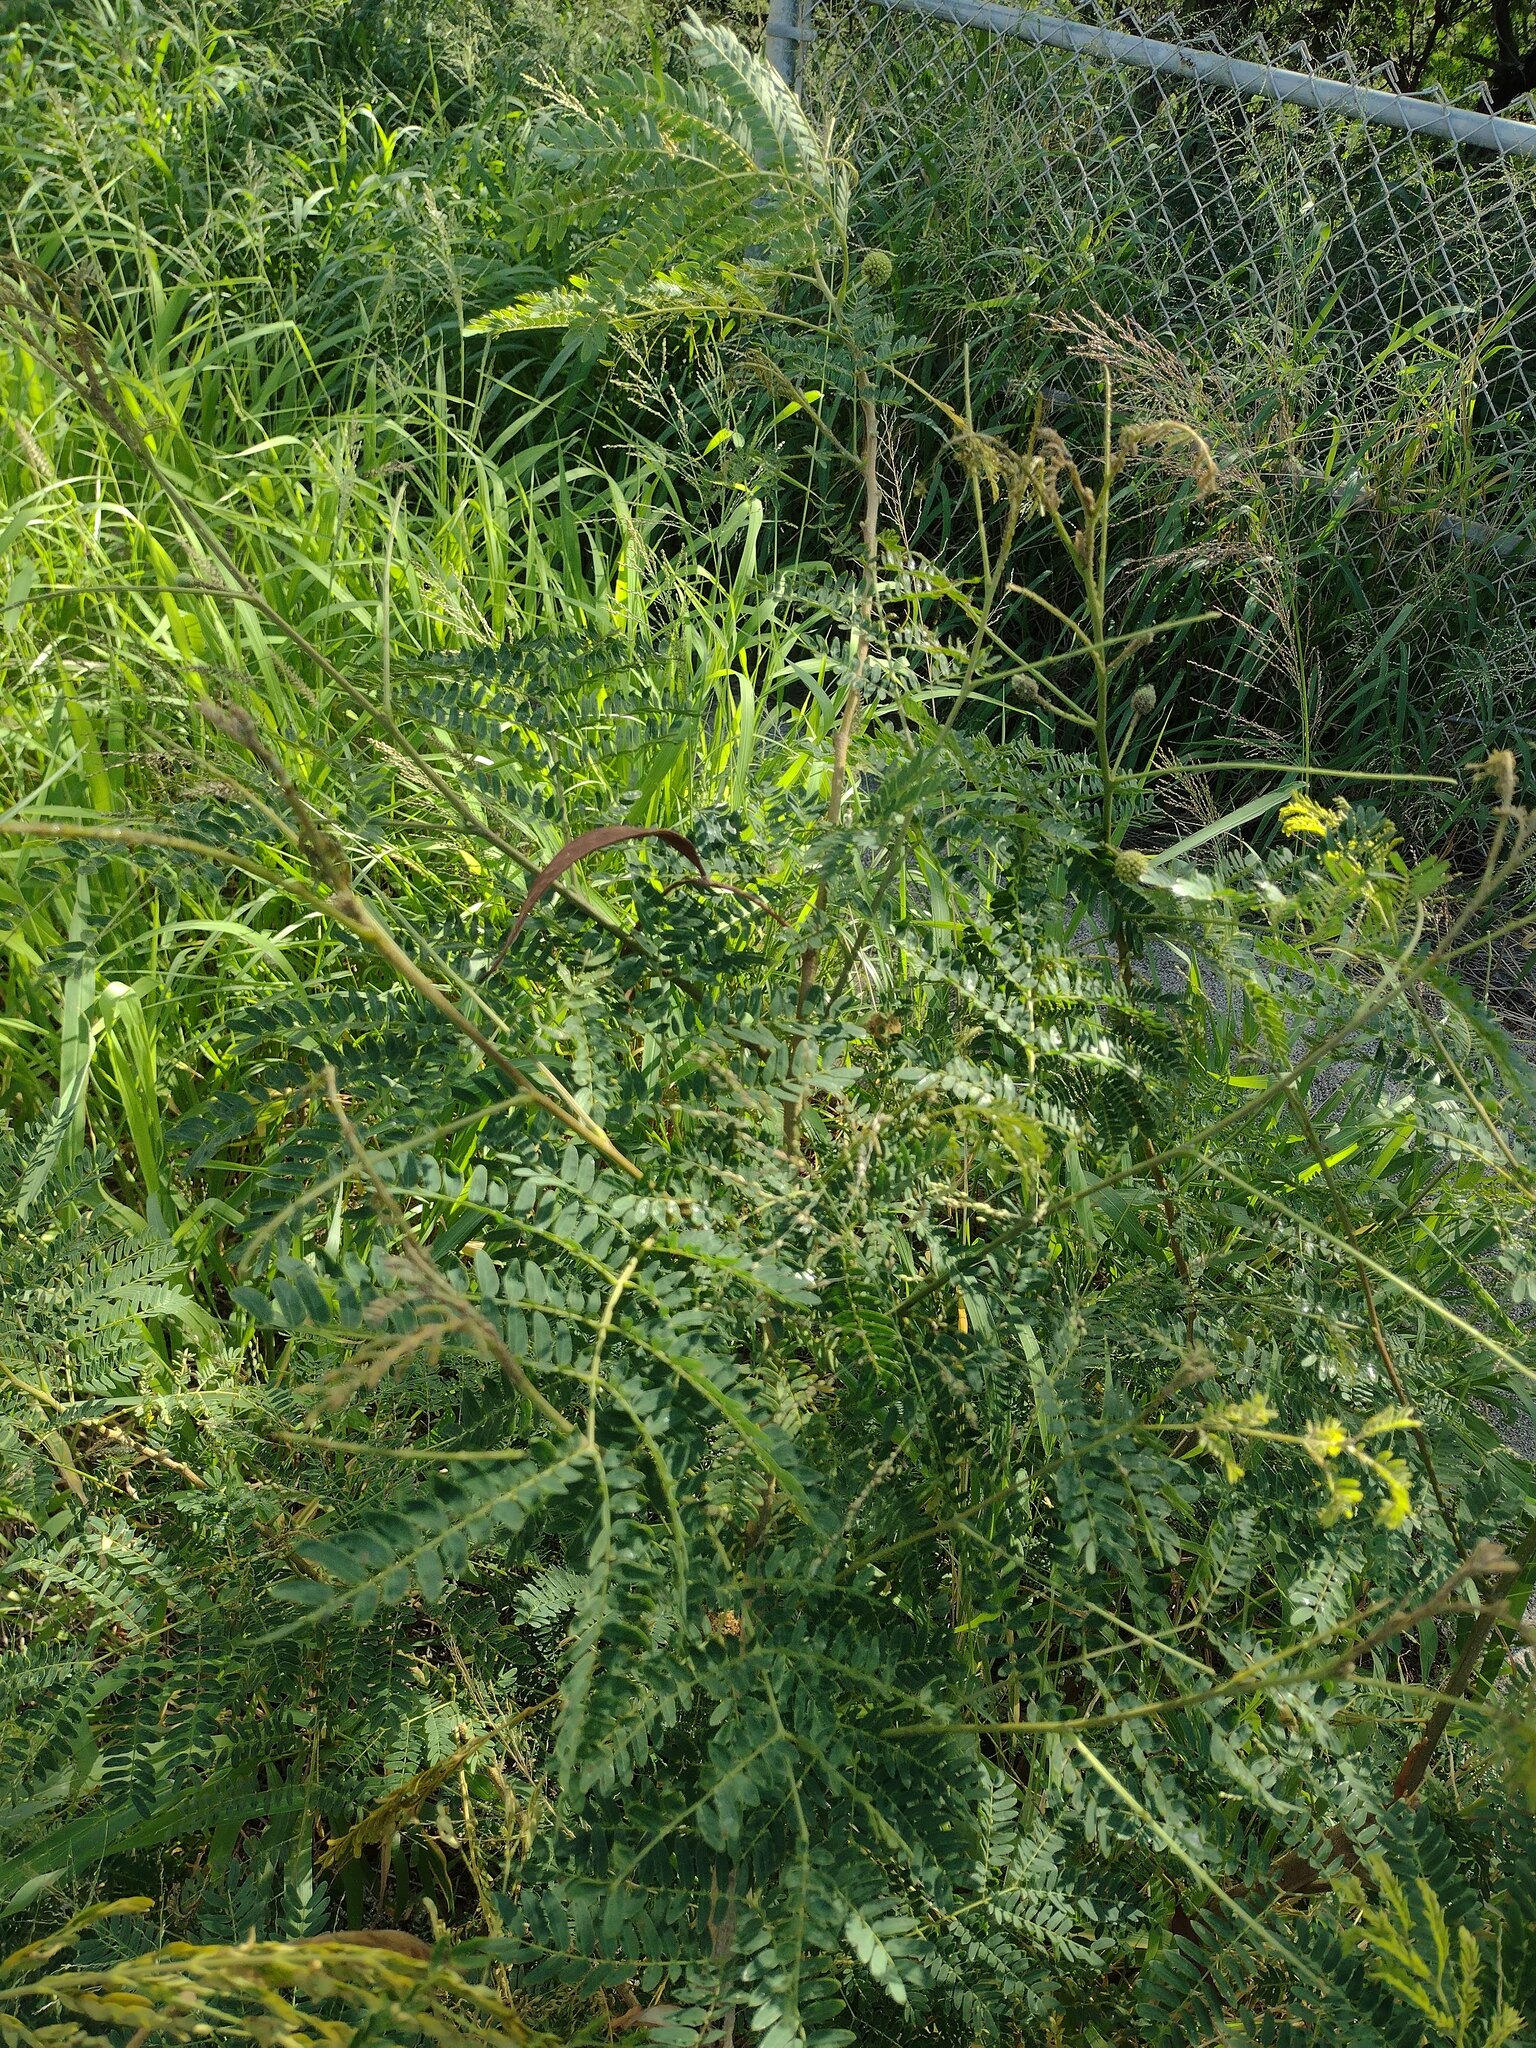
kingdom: Plantae
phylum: Tracheophyta
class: Magnoliopsida
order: Fabales
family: Fabaceae
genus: Leucaena
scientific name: Leucaena leucocephala
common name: White leadtree
